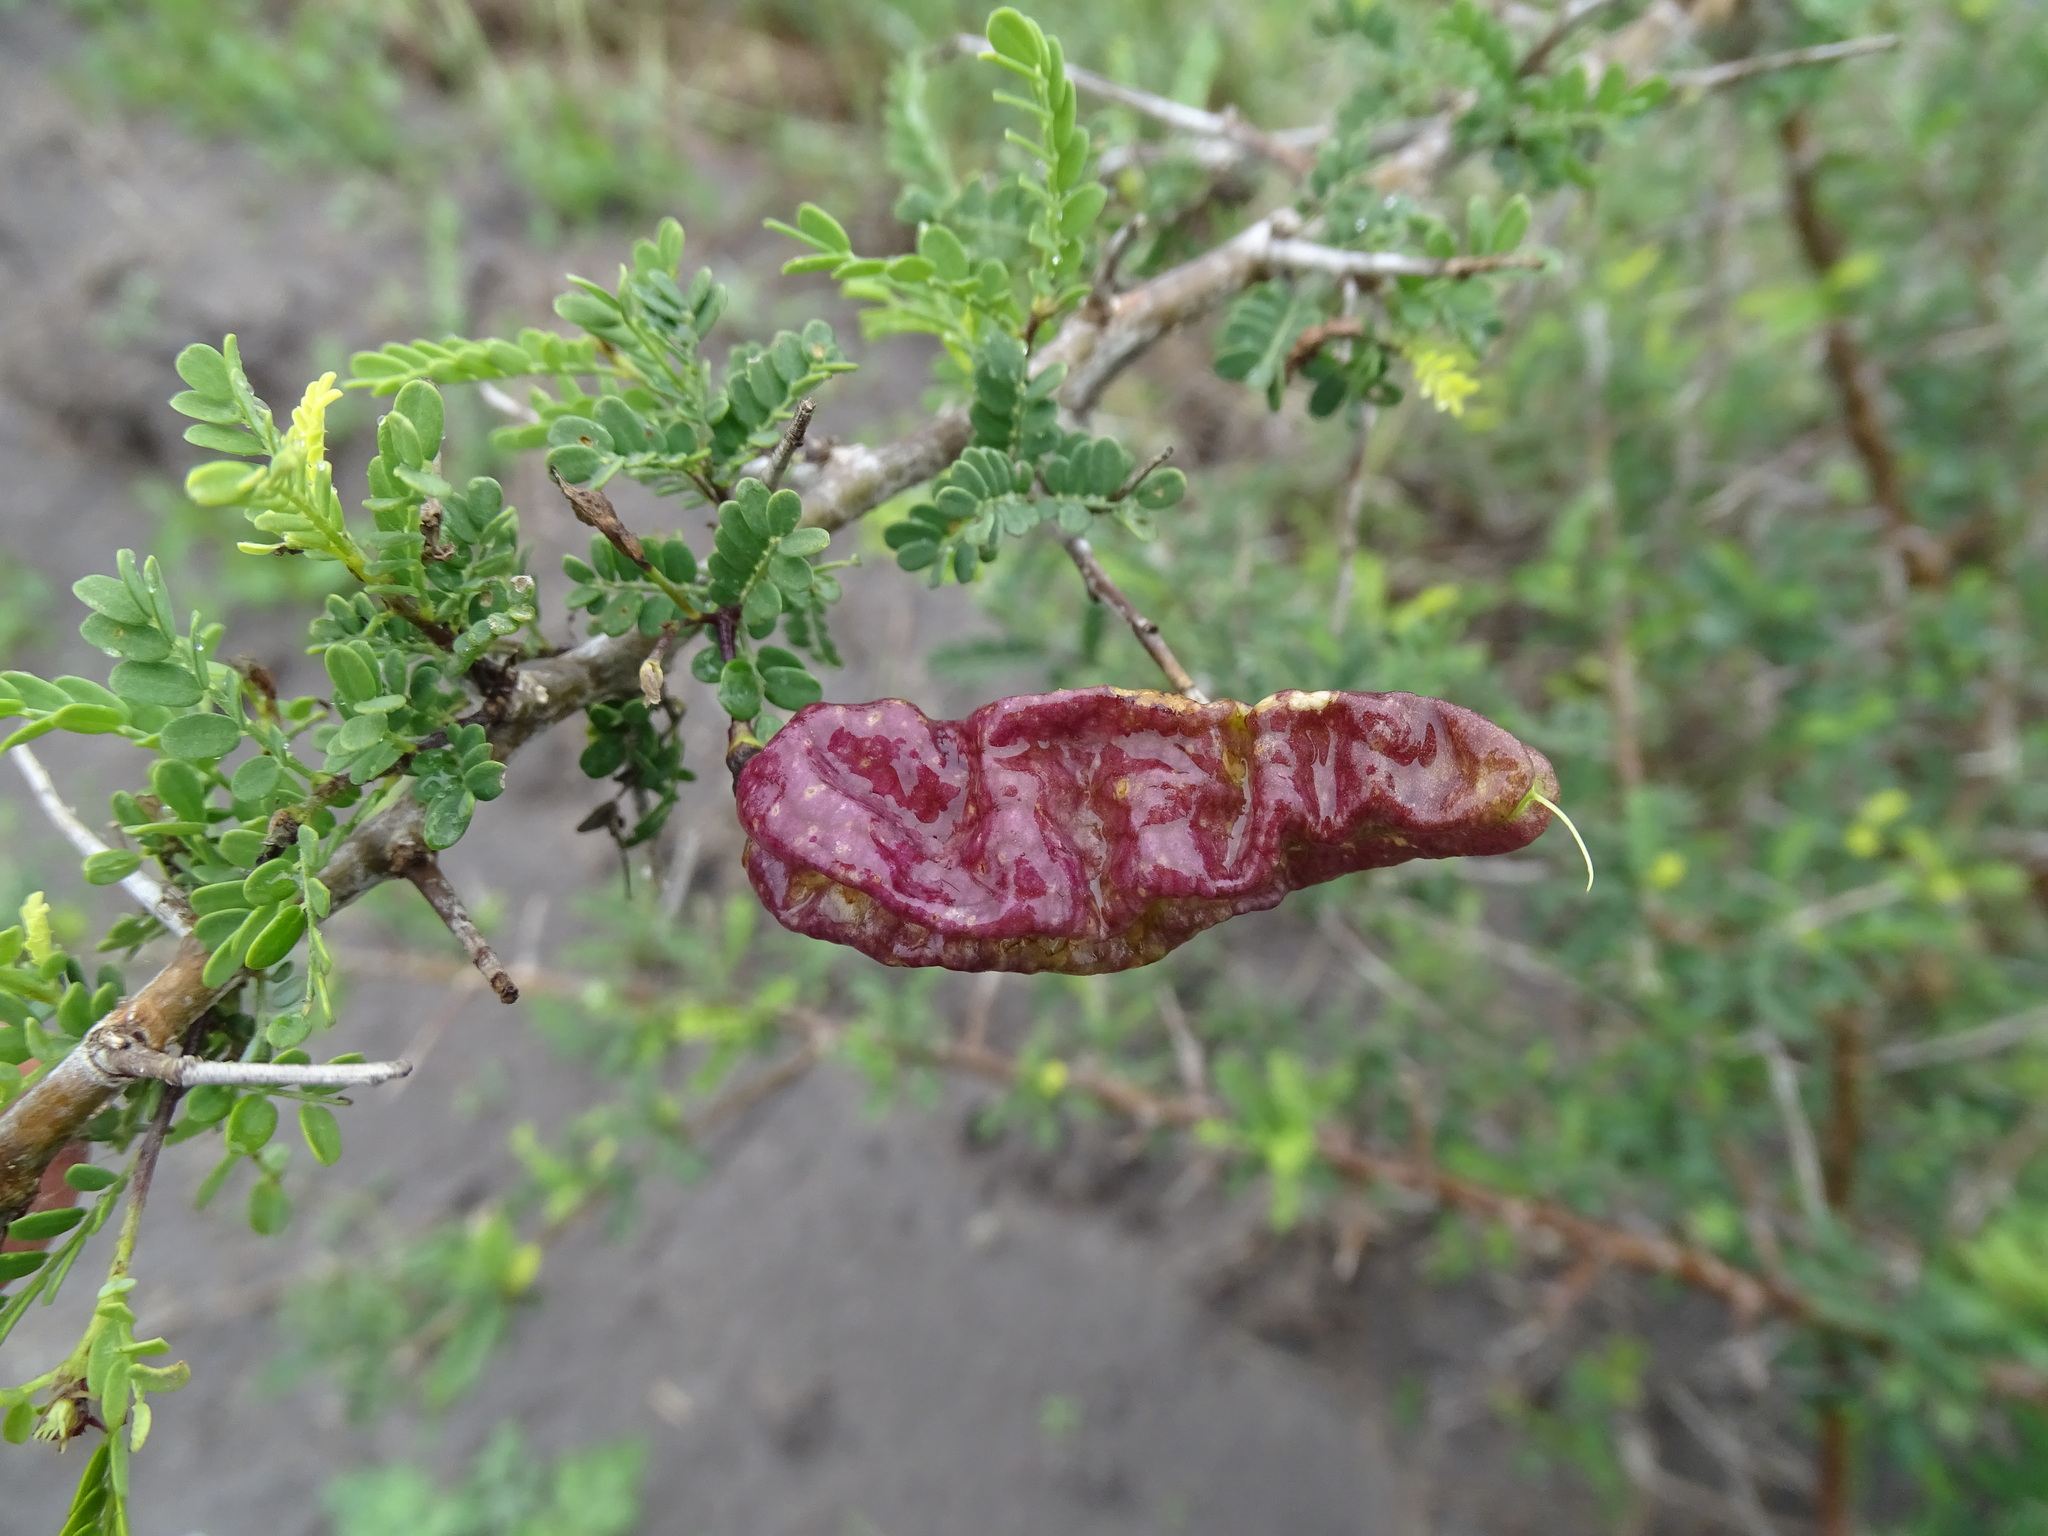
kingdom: Plantae
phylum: Tracheophyta
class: Magnoliopsida
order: Fabales
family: Fabaceae
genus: Diphysa
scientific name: Diphysa microphylla
